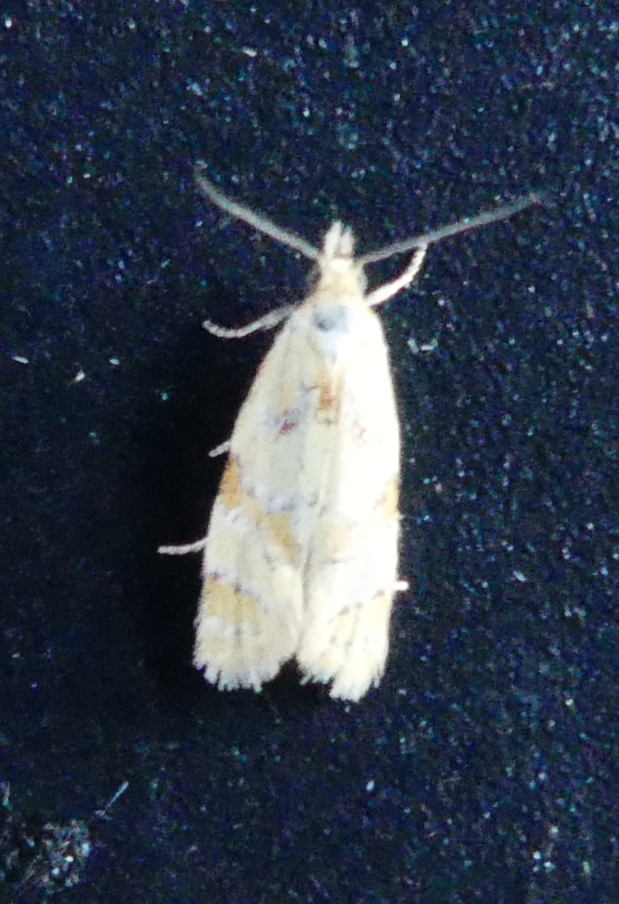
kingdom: Animalia
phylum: Arthropoda
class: Insecta
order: Lepidoptera
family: Tortricidae
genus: Phtheochroa
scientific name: Phtheochroa vitellinana
